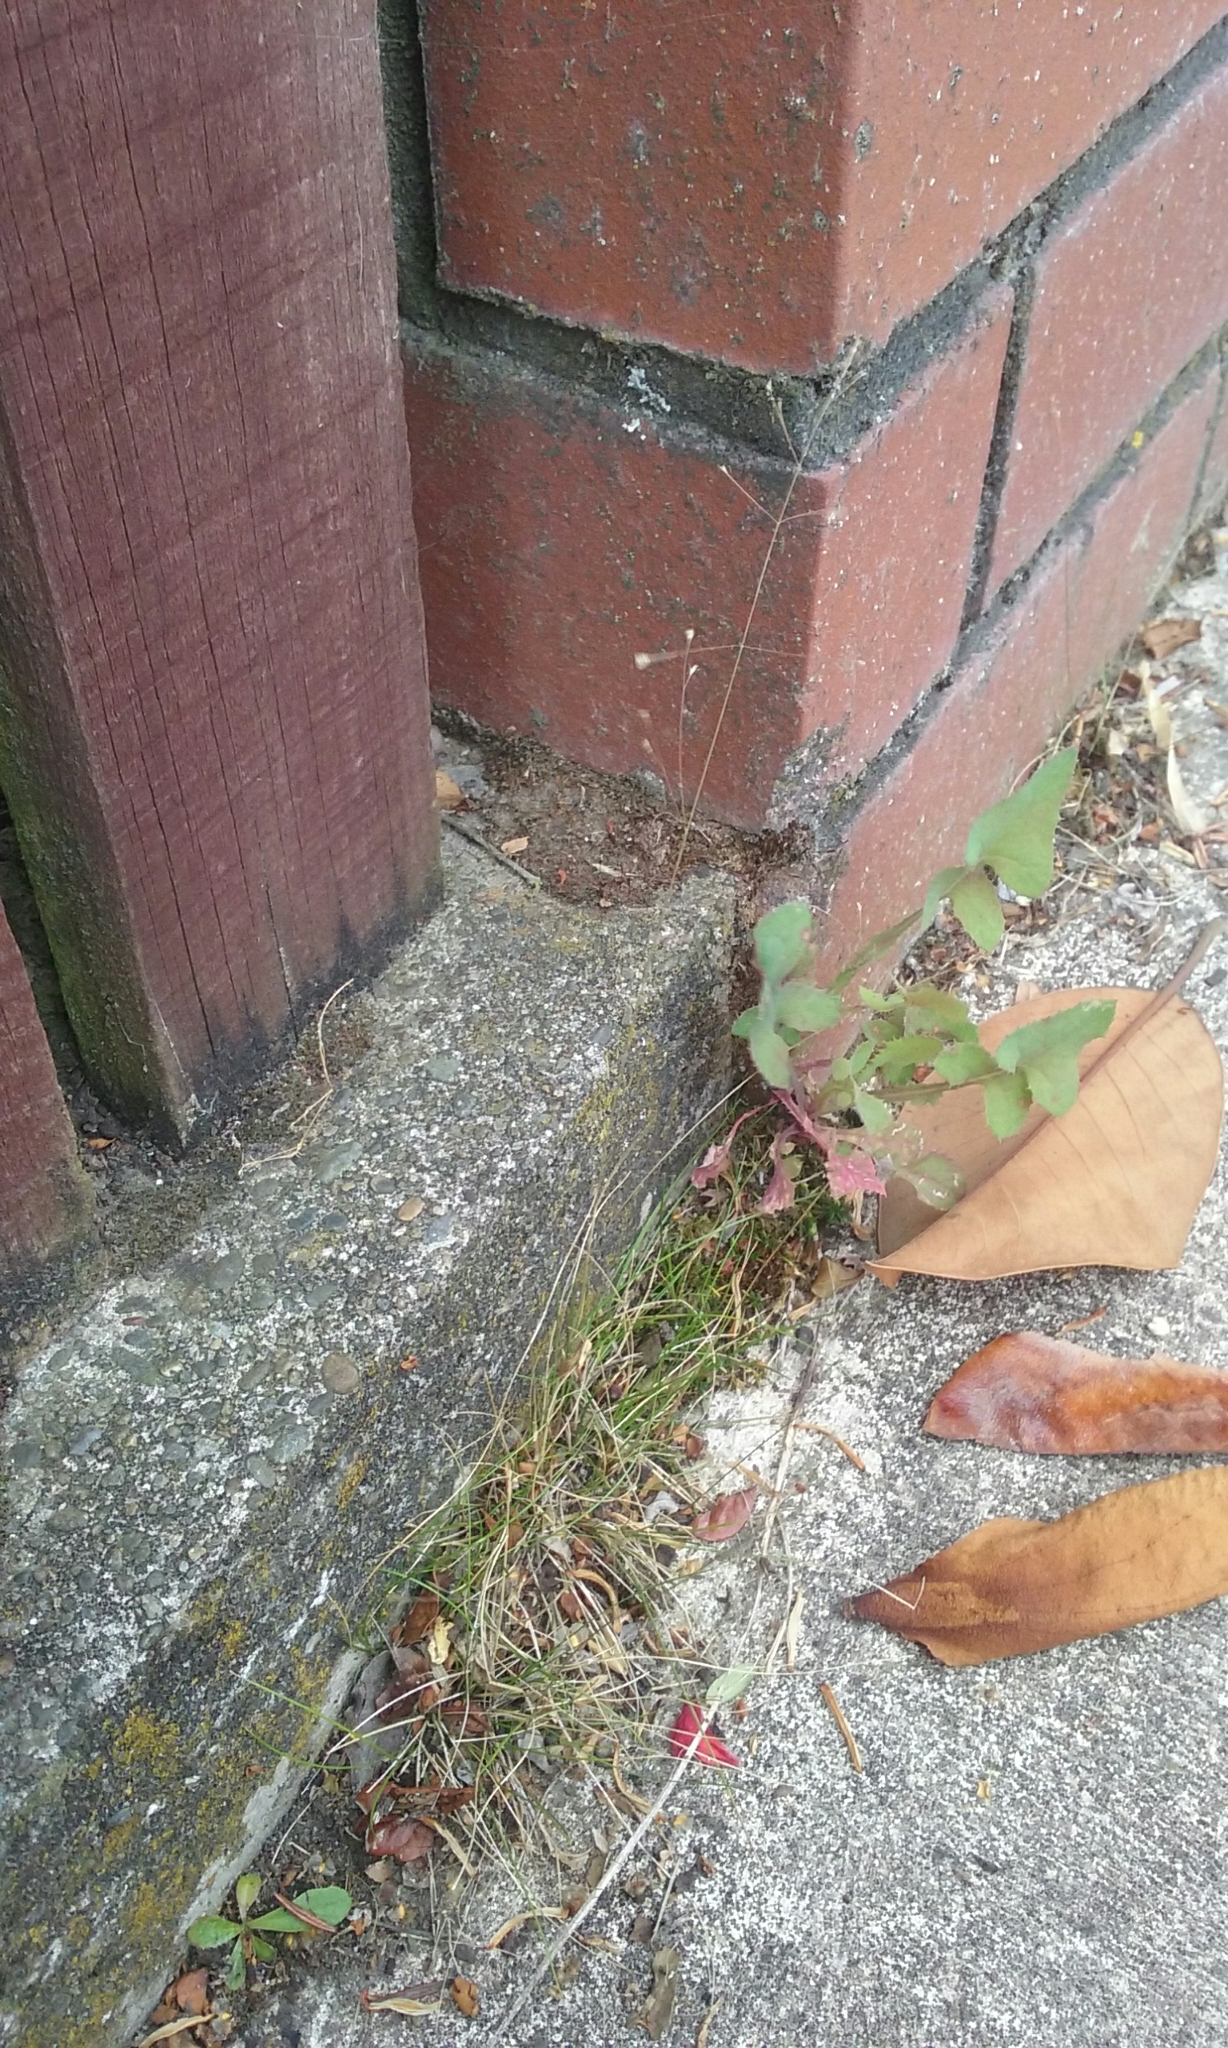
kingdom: Plantae
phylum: Tracheophyta
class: Liliopsida
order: Poales
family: Poaceae
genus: Poa
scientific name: Poa imbecilla
